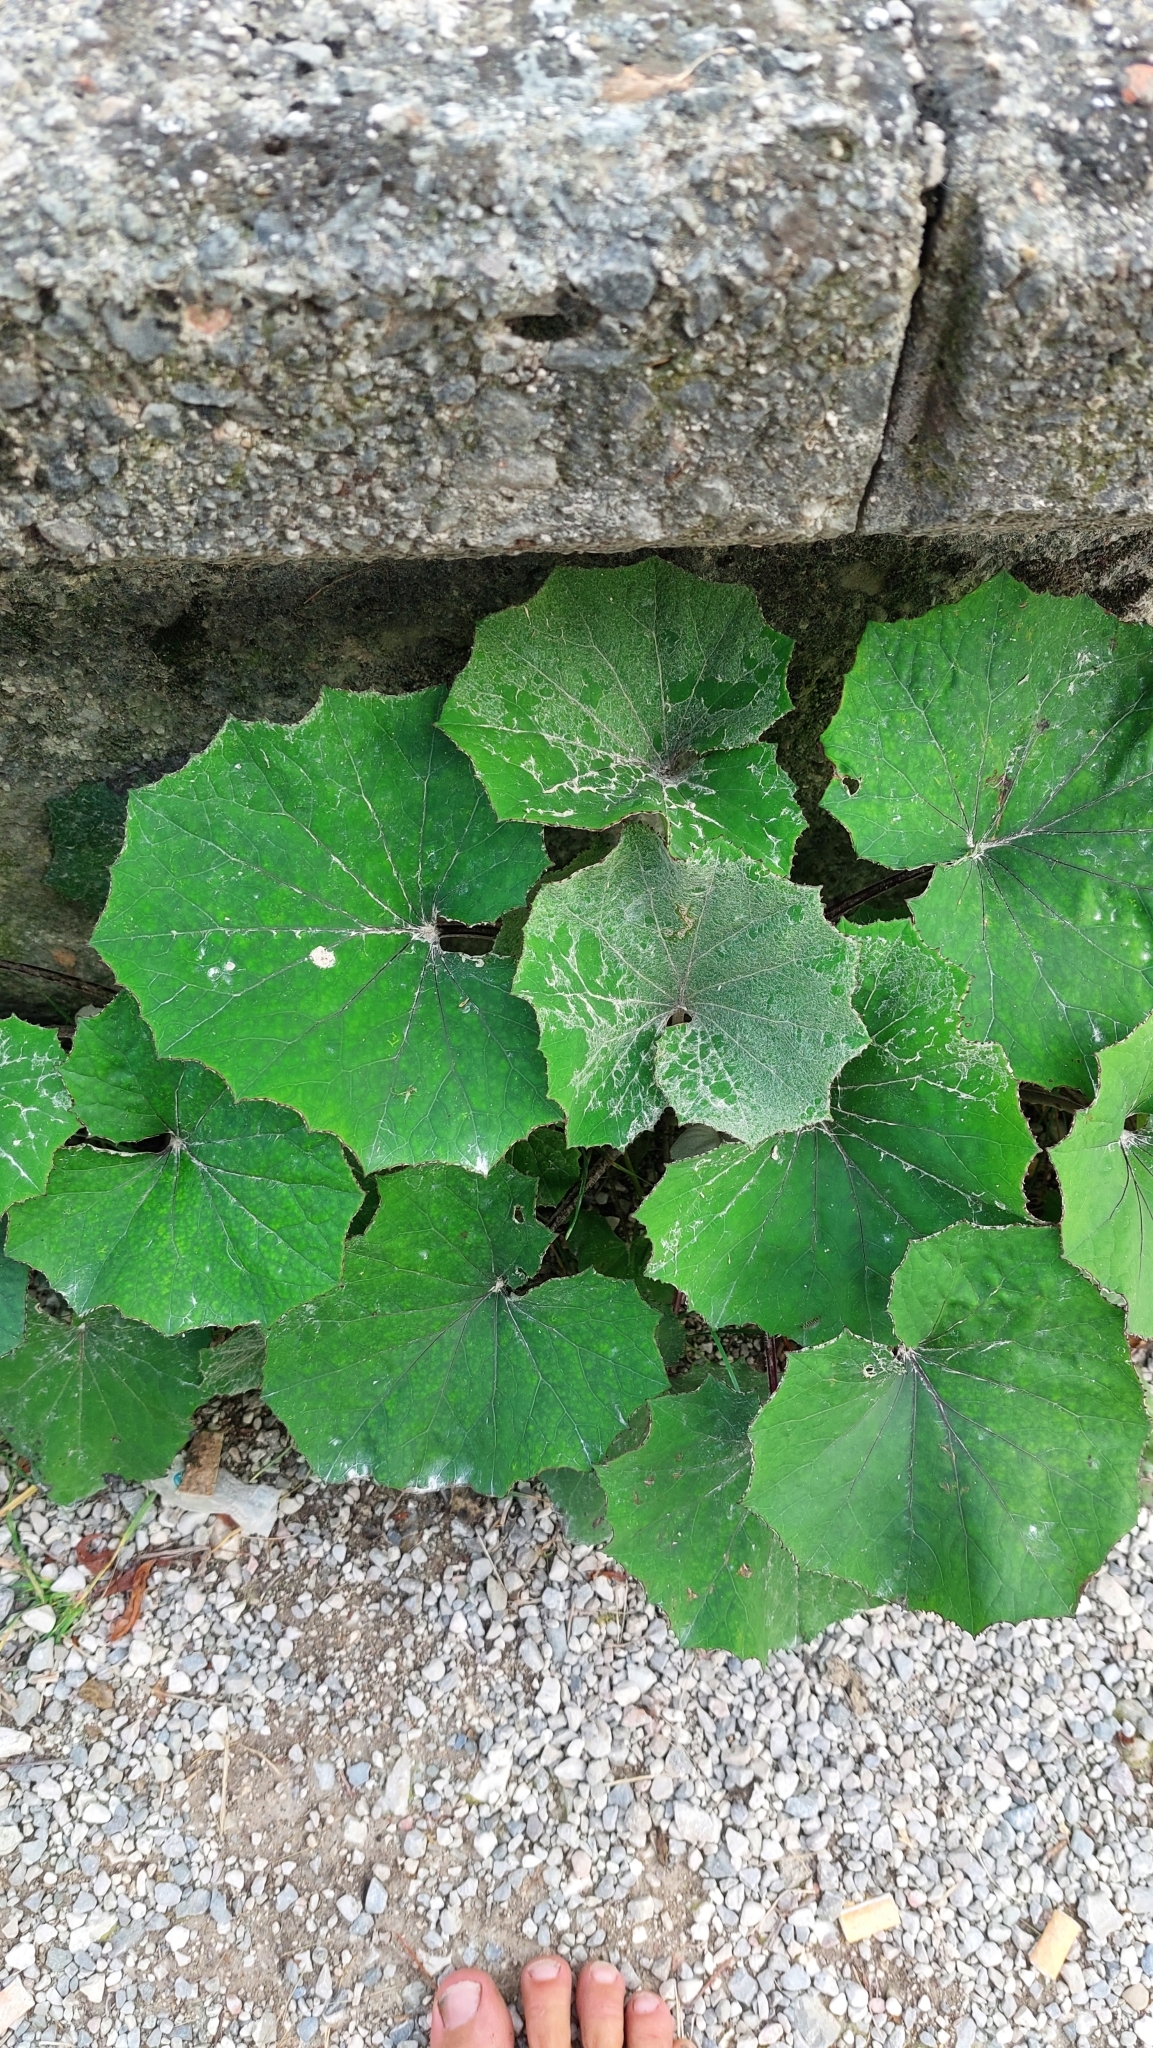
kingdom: Plantae
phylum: Tracheophyta
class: Magnoliopsida
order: Asterales
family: Asteraceae
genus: Tussilago
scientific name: Tussilago farfara
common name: Coltsfoot
